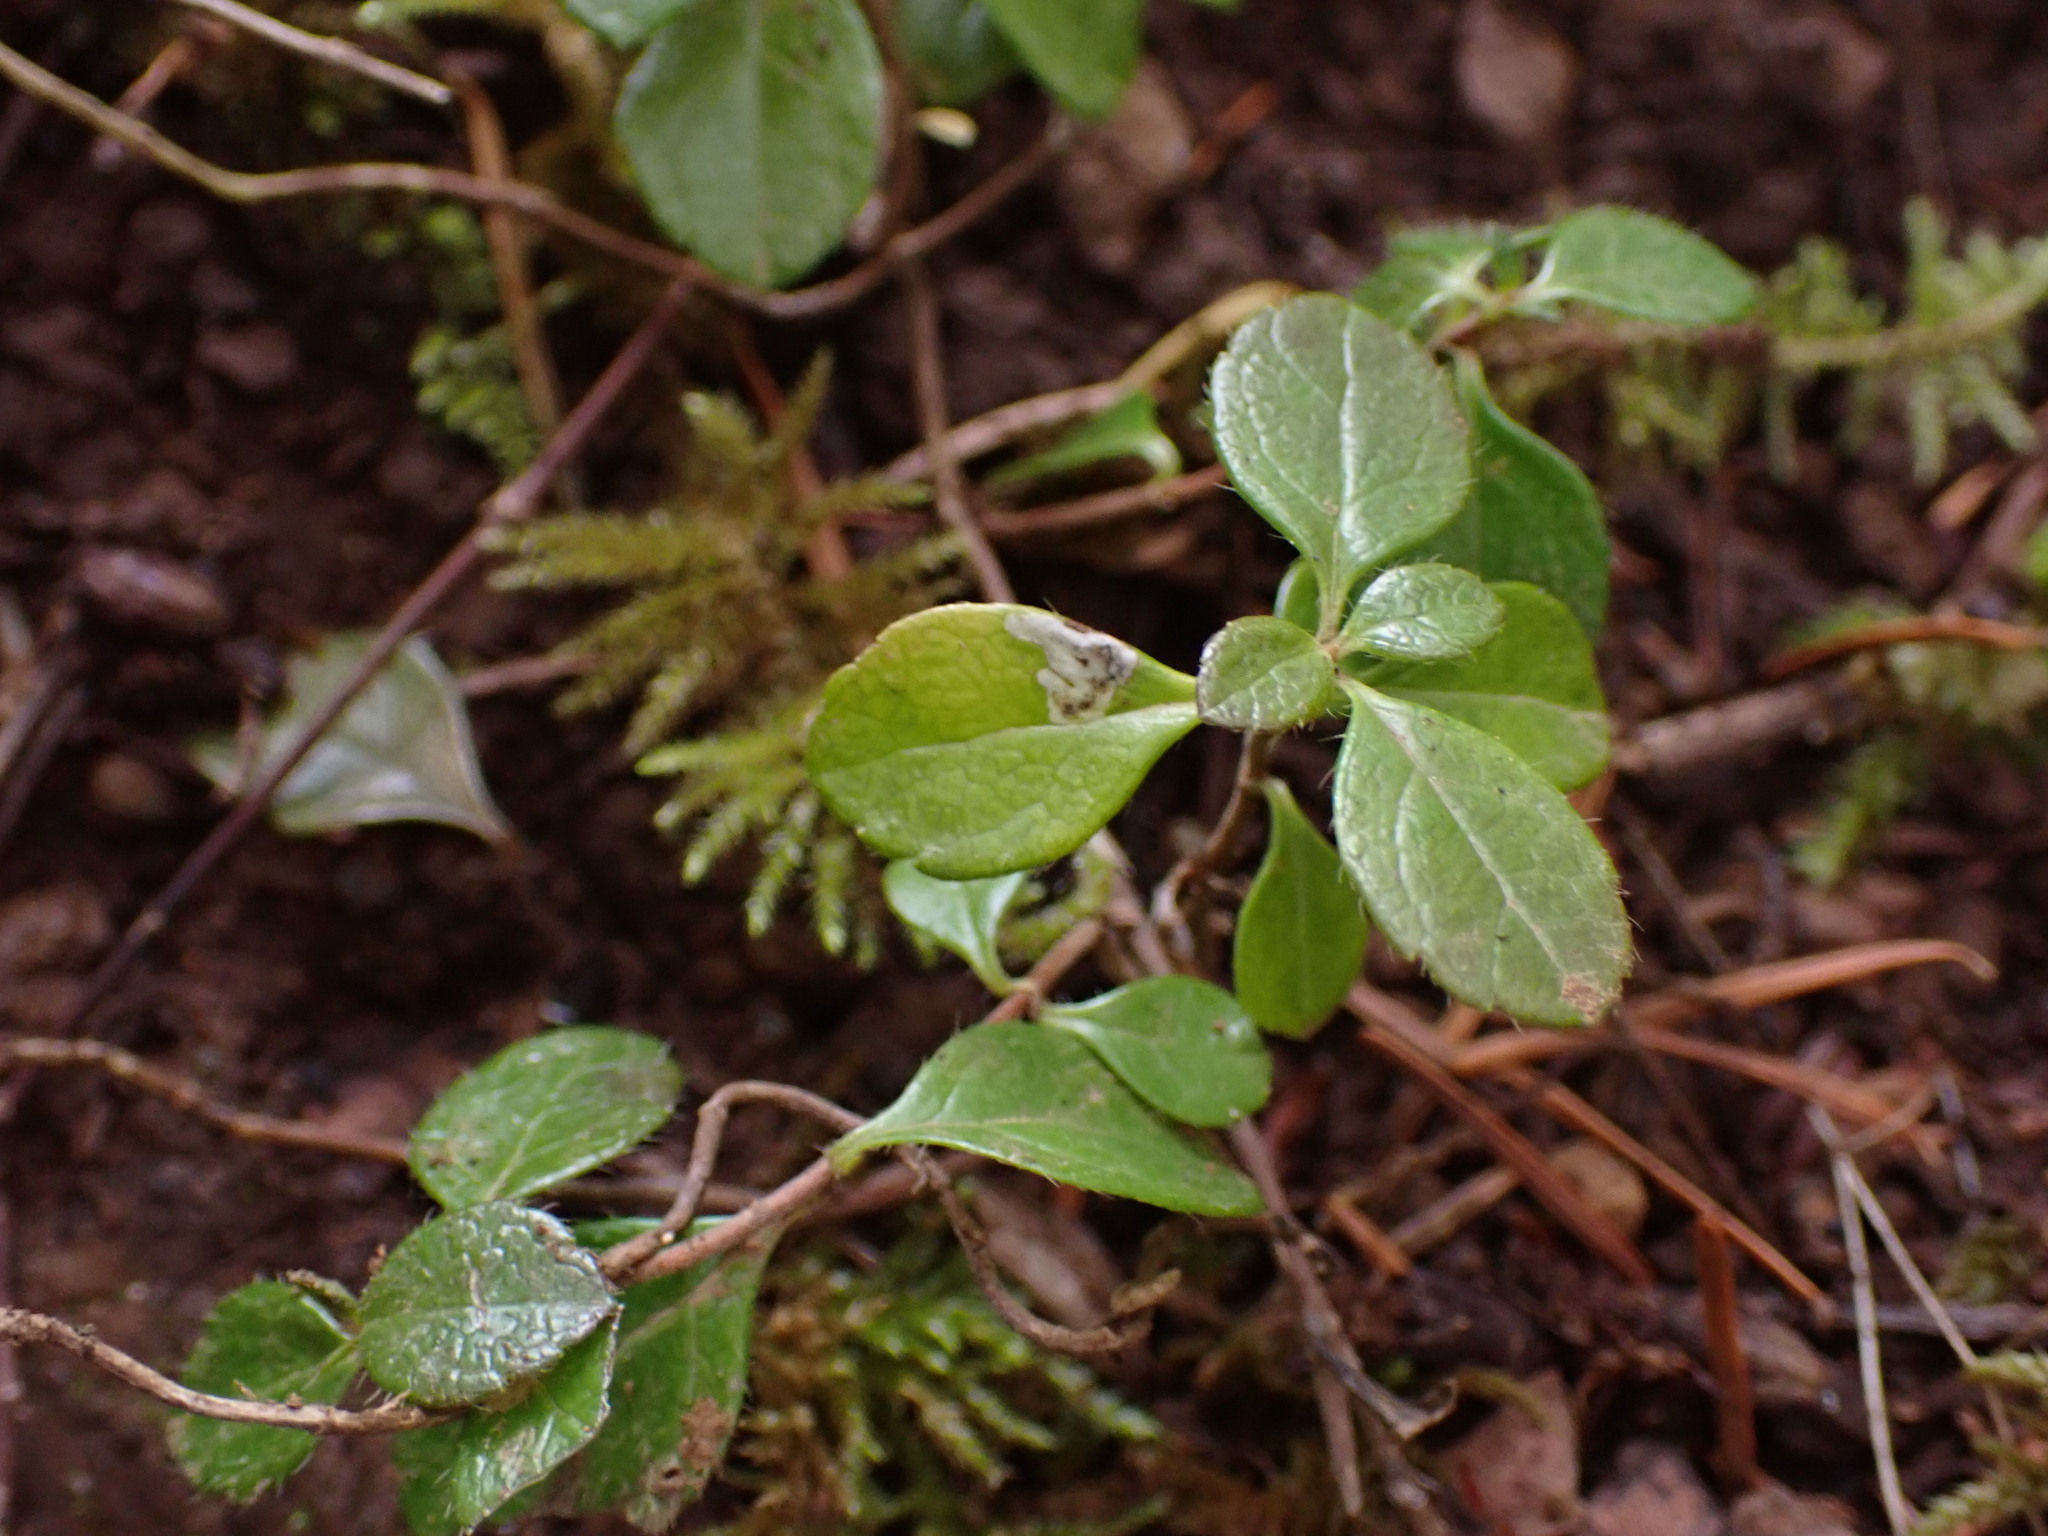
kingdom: Plantae
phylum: Tracheophyta
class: Magnoliopsida
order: Dipsacales
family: Caprifoliaceae
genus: Linnaea
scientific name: Linnaea borealis
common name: Twinflower
